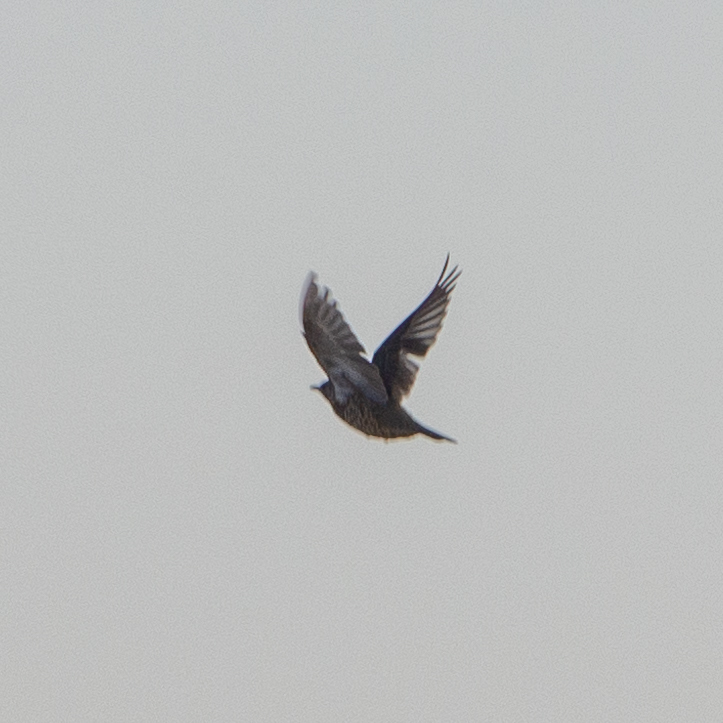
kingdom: Animalia
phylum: Chordata
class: Aves
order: Passeriformes
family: Turdidae
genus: Turdus
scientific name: Turdus viscivorus
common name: Mistle thrush
